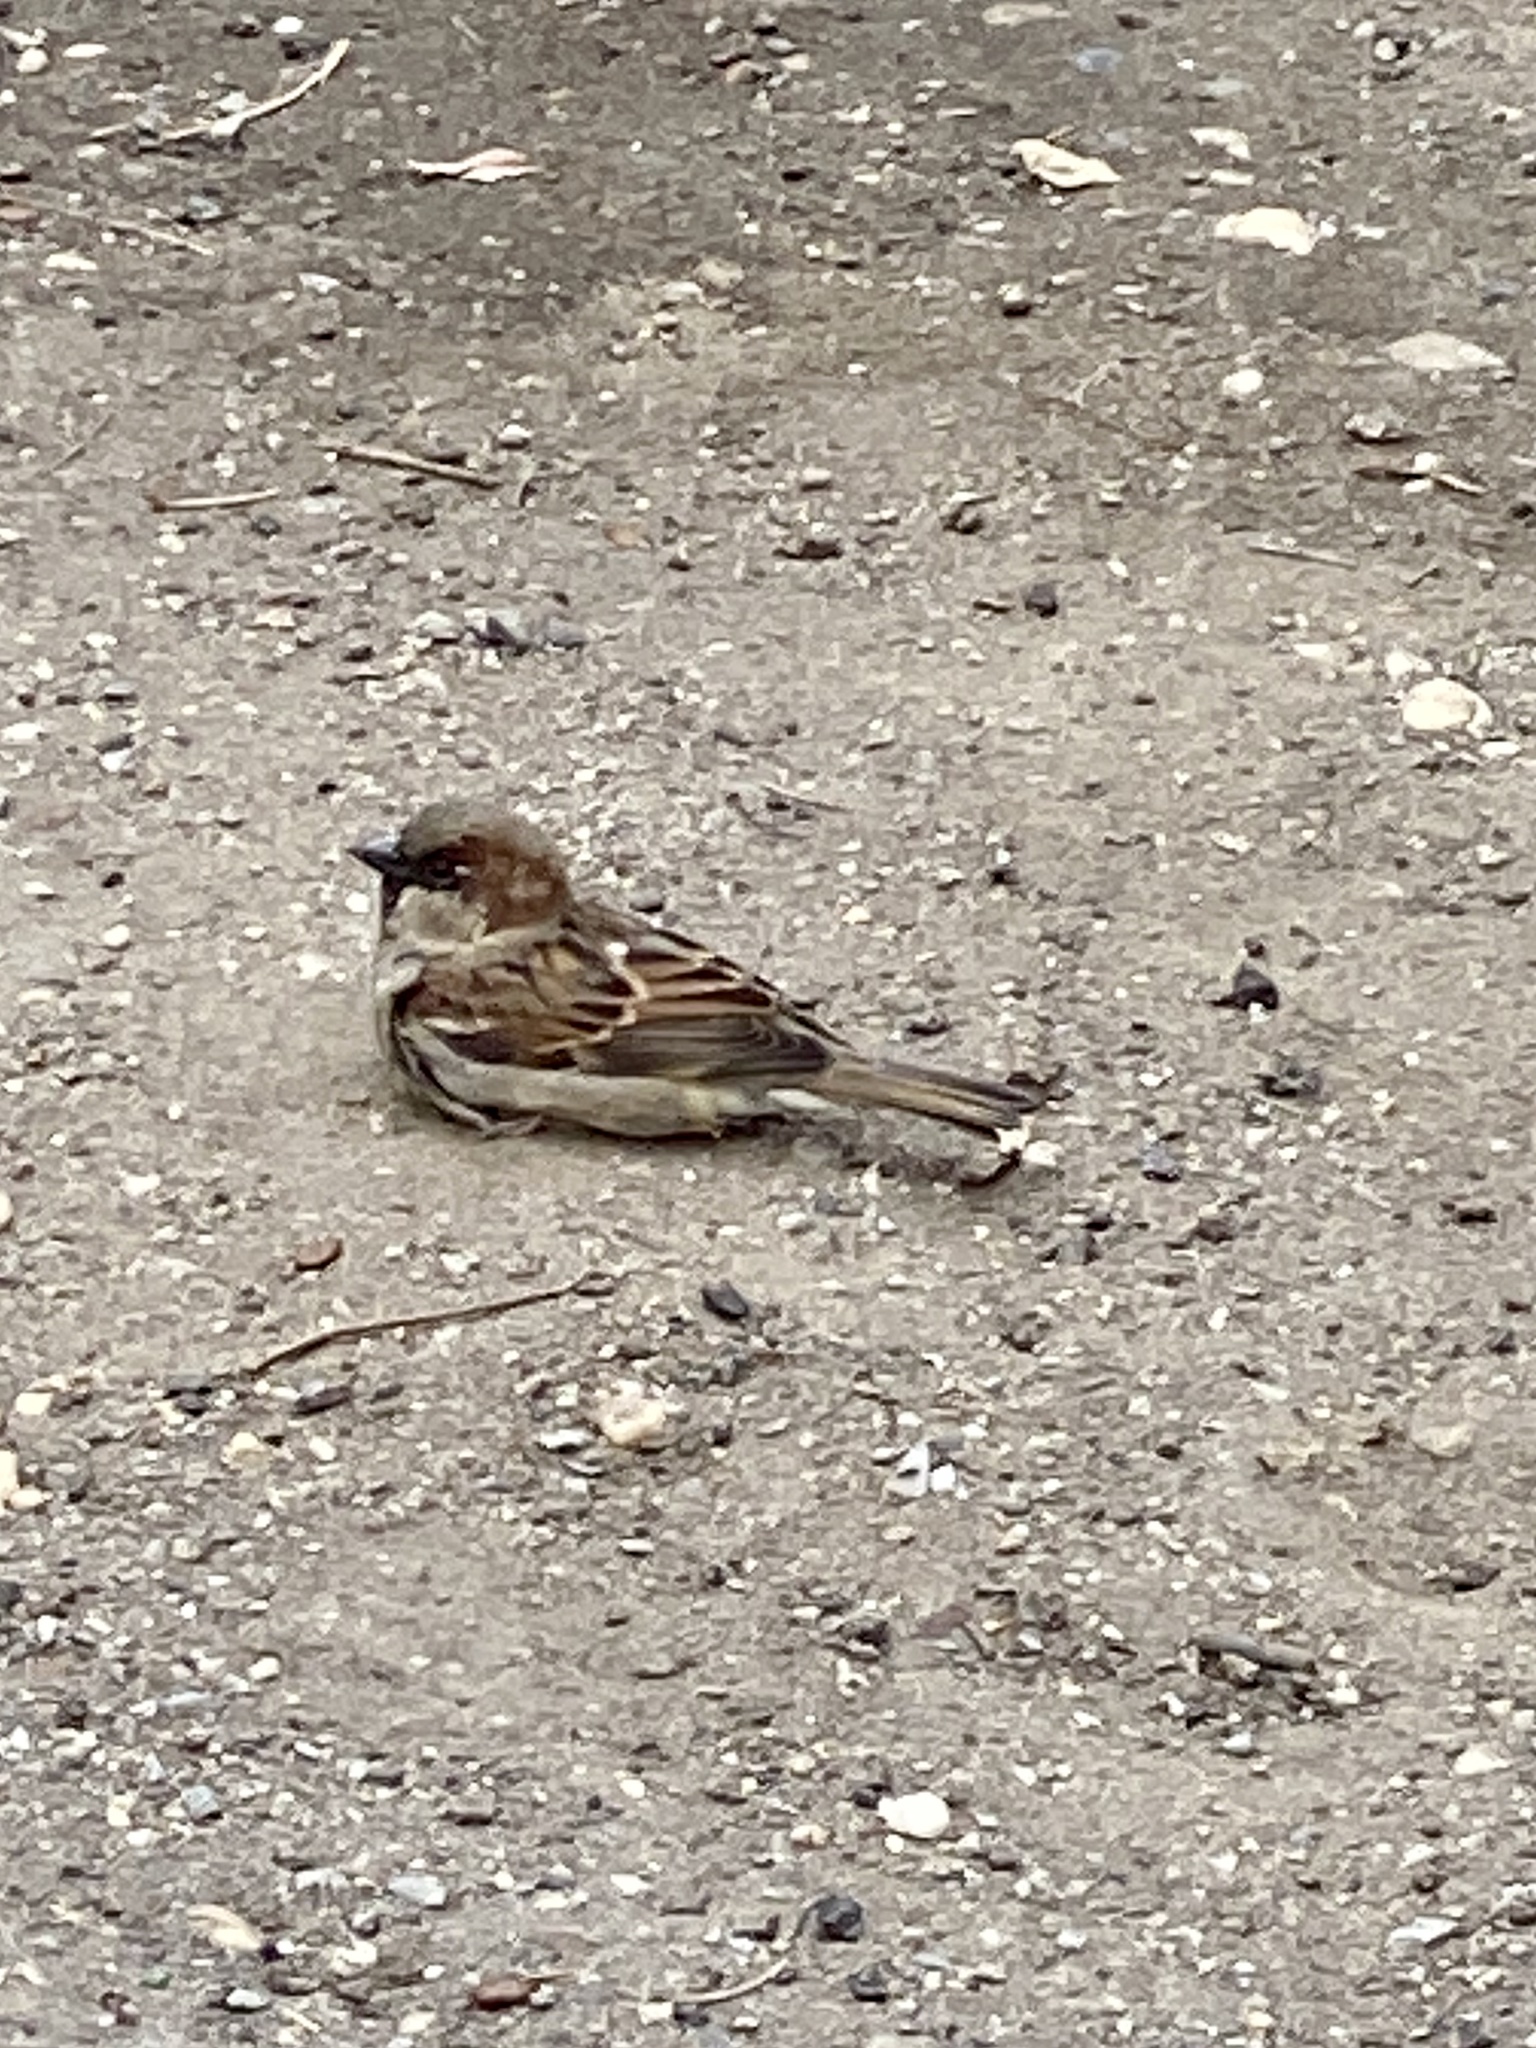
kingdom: Animalia
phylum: Chordata
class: Aves
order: Passeriformes
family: Passeridae
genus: Passer
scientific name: Passer domesticus
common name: House sparrow
